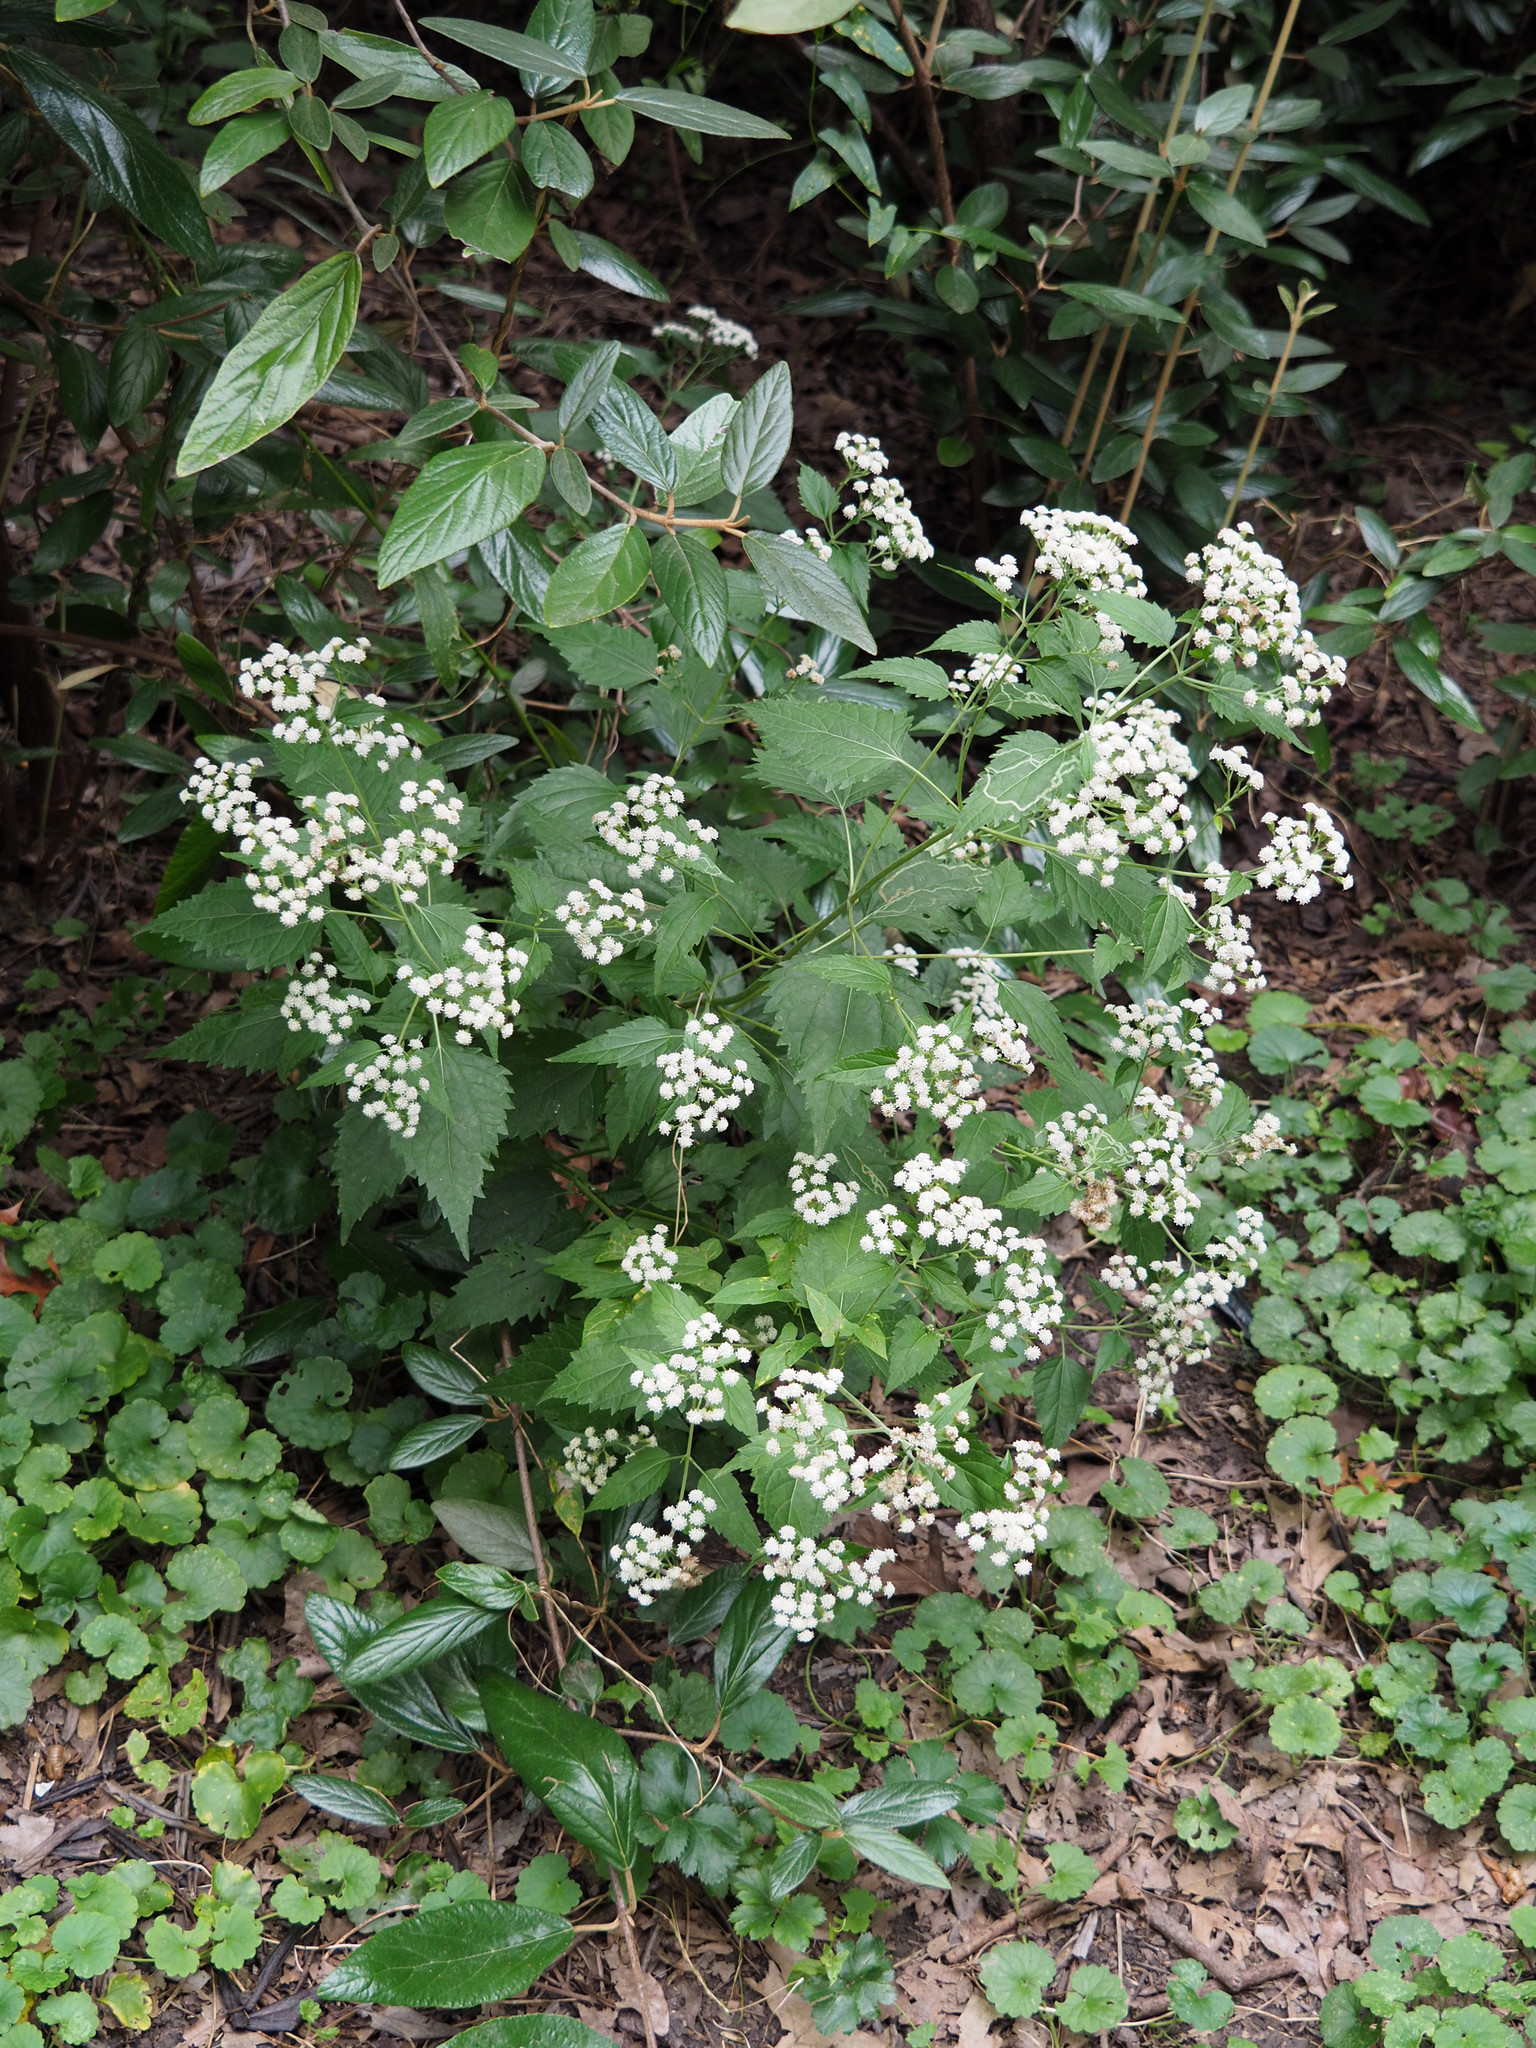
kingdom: Plantae
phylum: Tracheophyta
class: Magnoliopsida
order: Asterales
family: Asteraceae
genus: Ageratina
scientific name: Ageratina altissima
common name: White snakeroot
